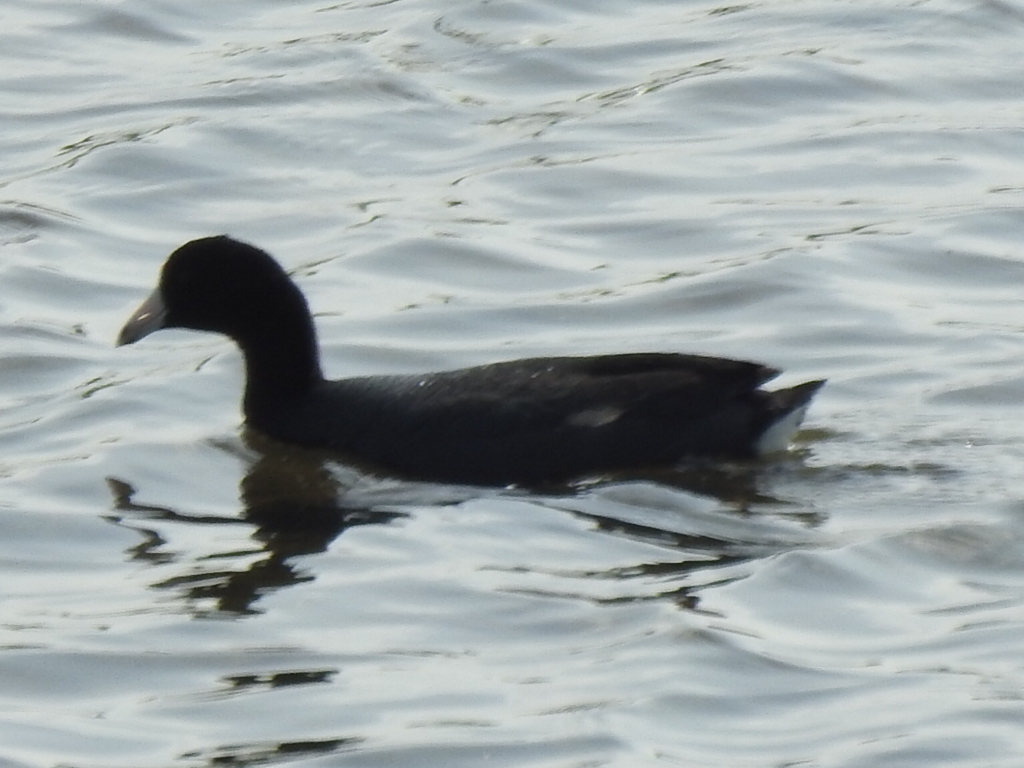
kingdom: Animalia
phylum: Chordata
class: Aves
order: Gruiformes
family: Rallidae
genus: Fulica
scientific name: Fulica americana
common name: American coot
